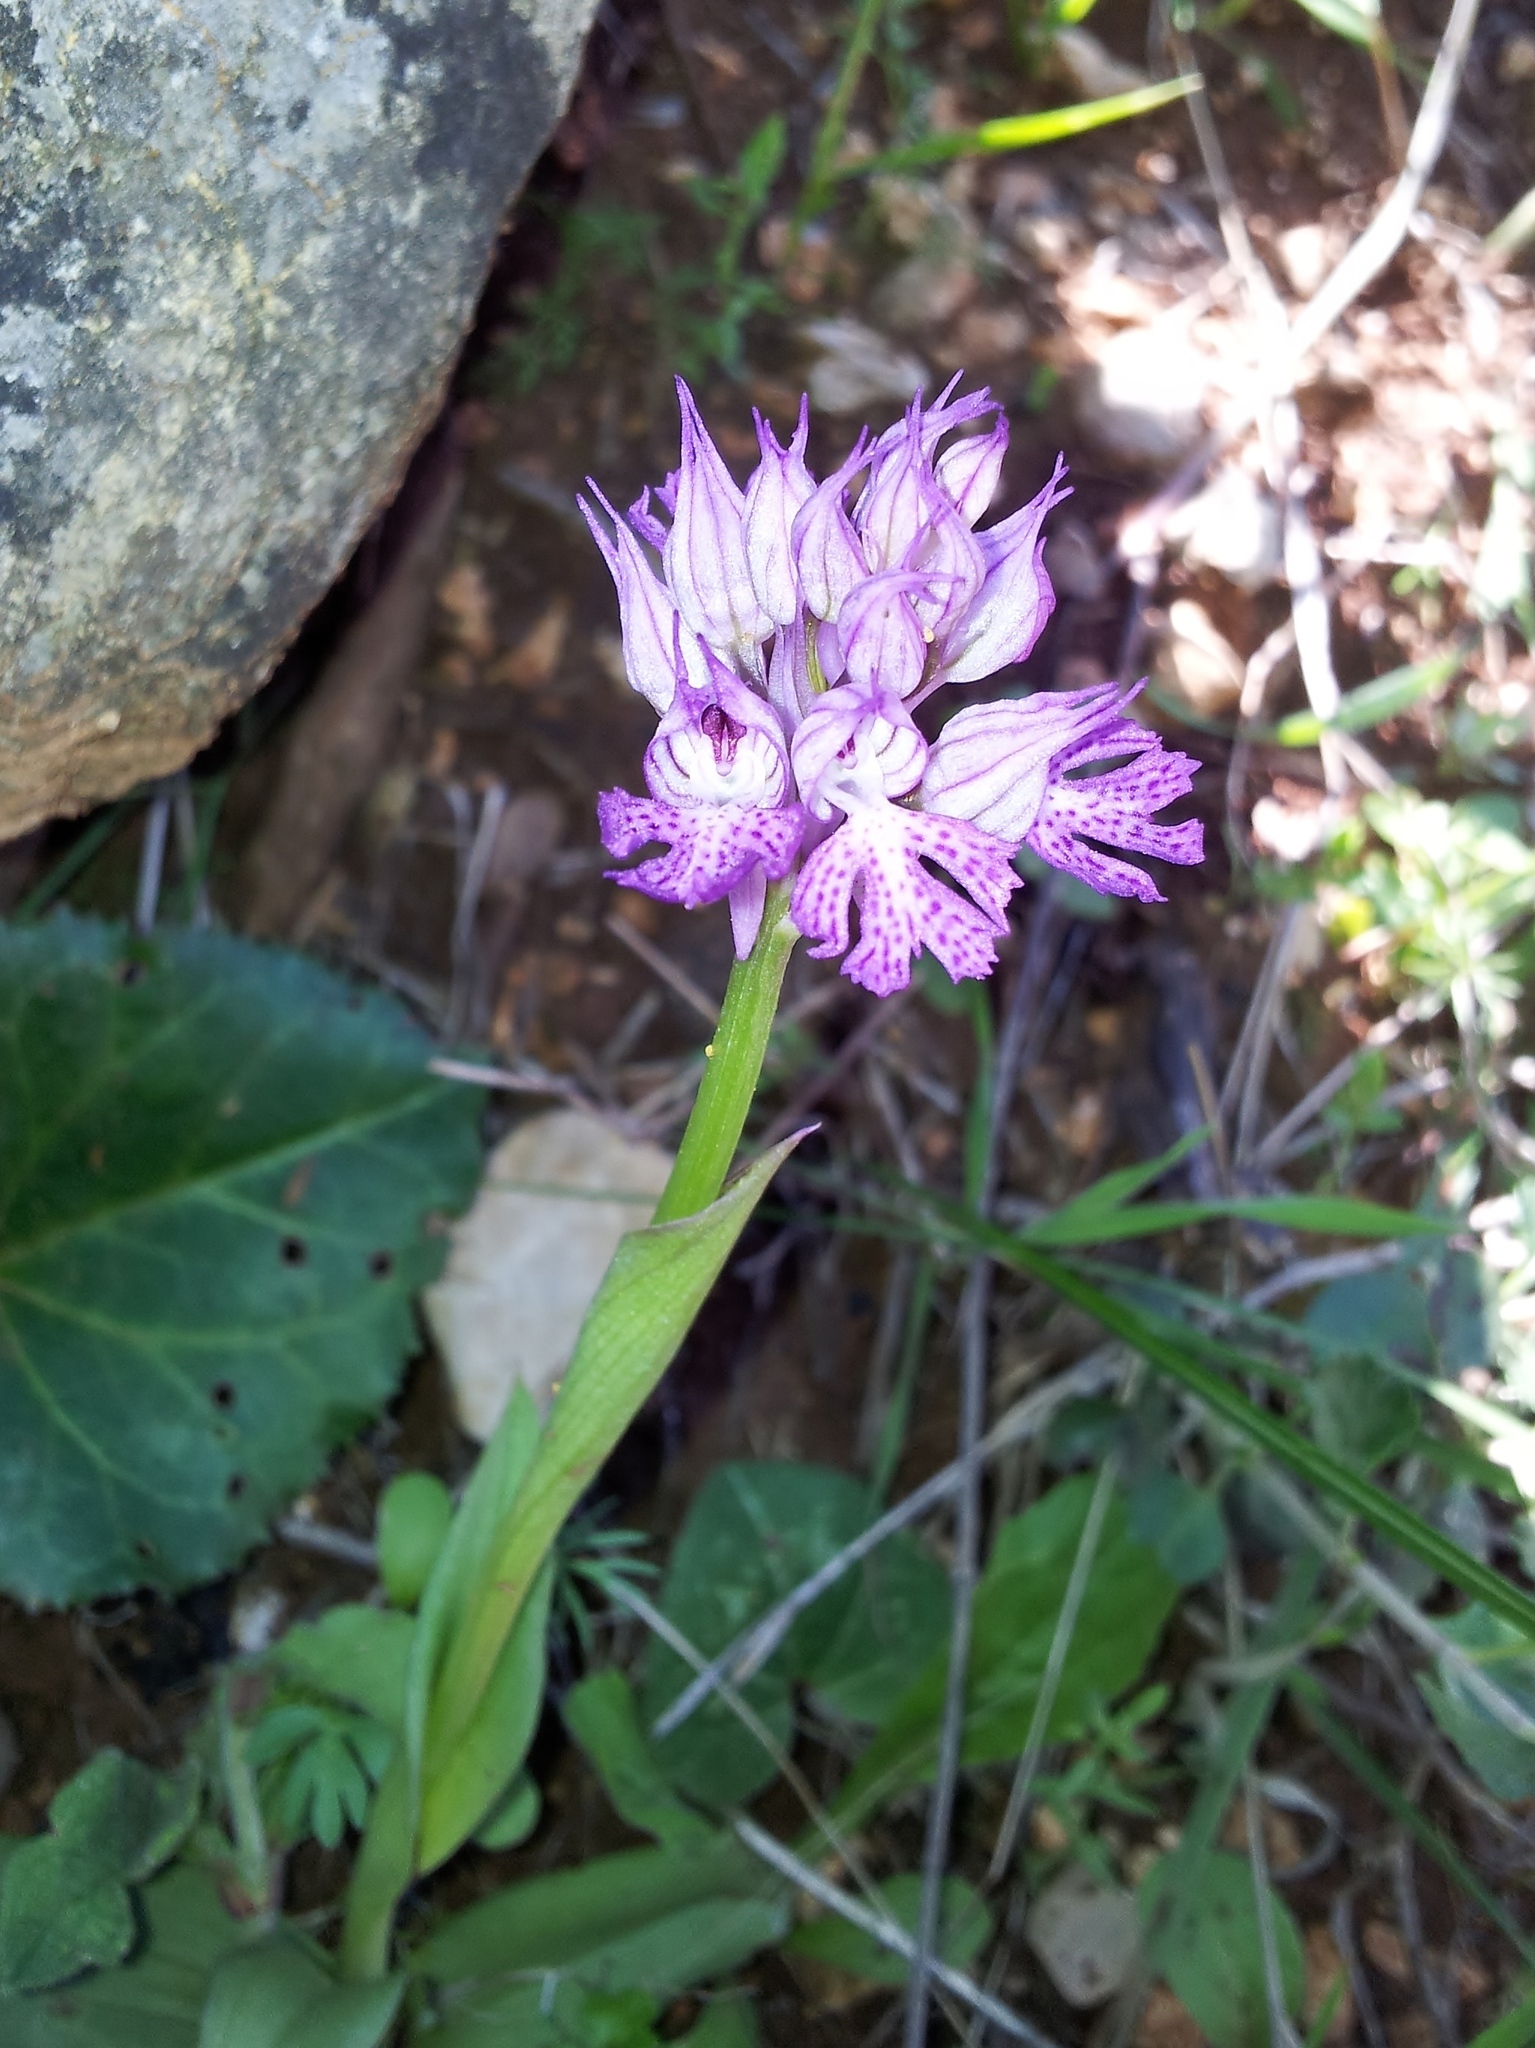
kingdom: Plantae
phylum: Tracheophyta
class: Liliopsida
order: Asparagales
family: Orchidaceae
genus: Neotinea
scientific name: Neotinea tridentata
